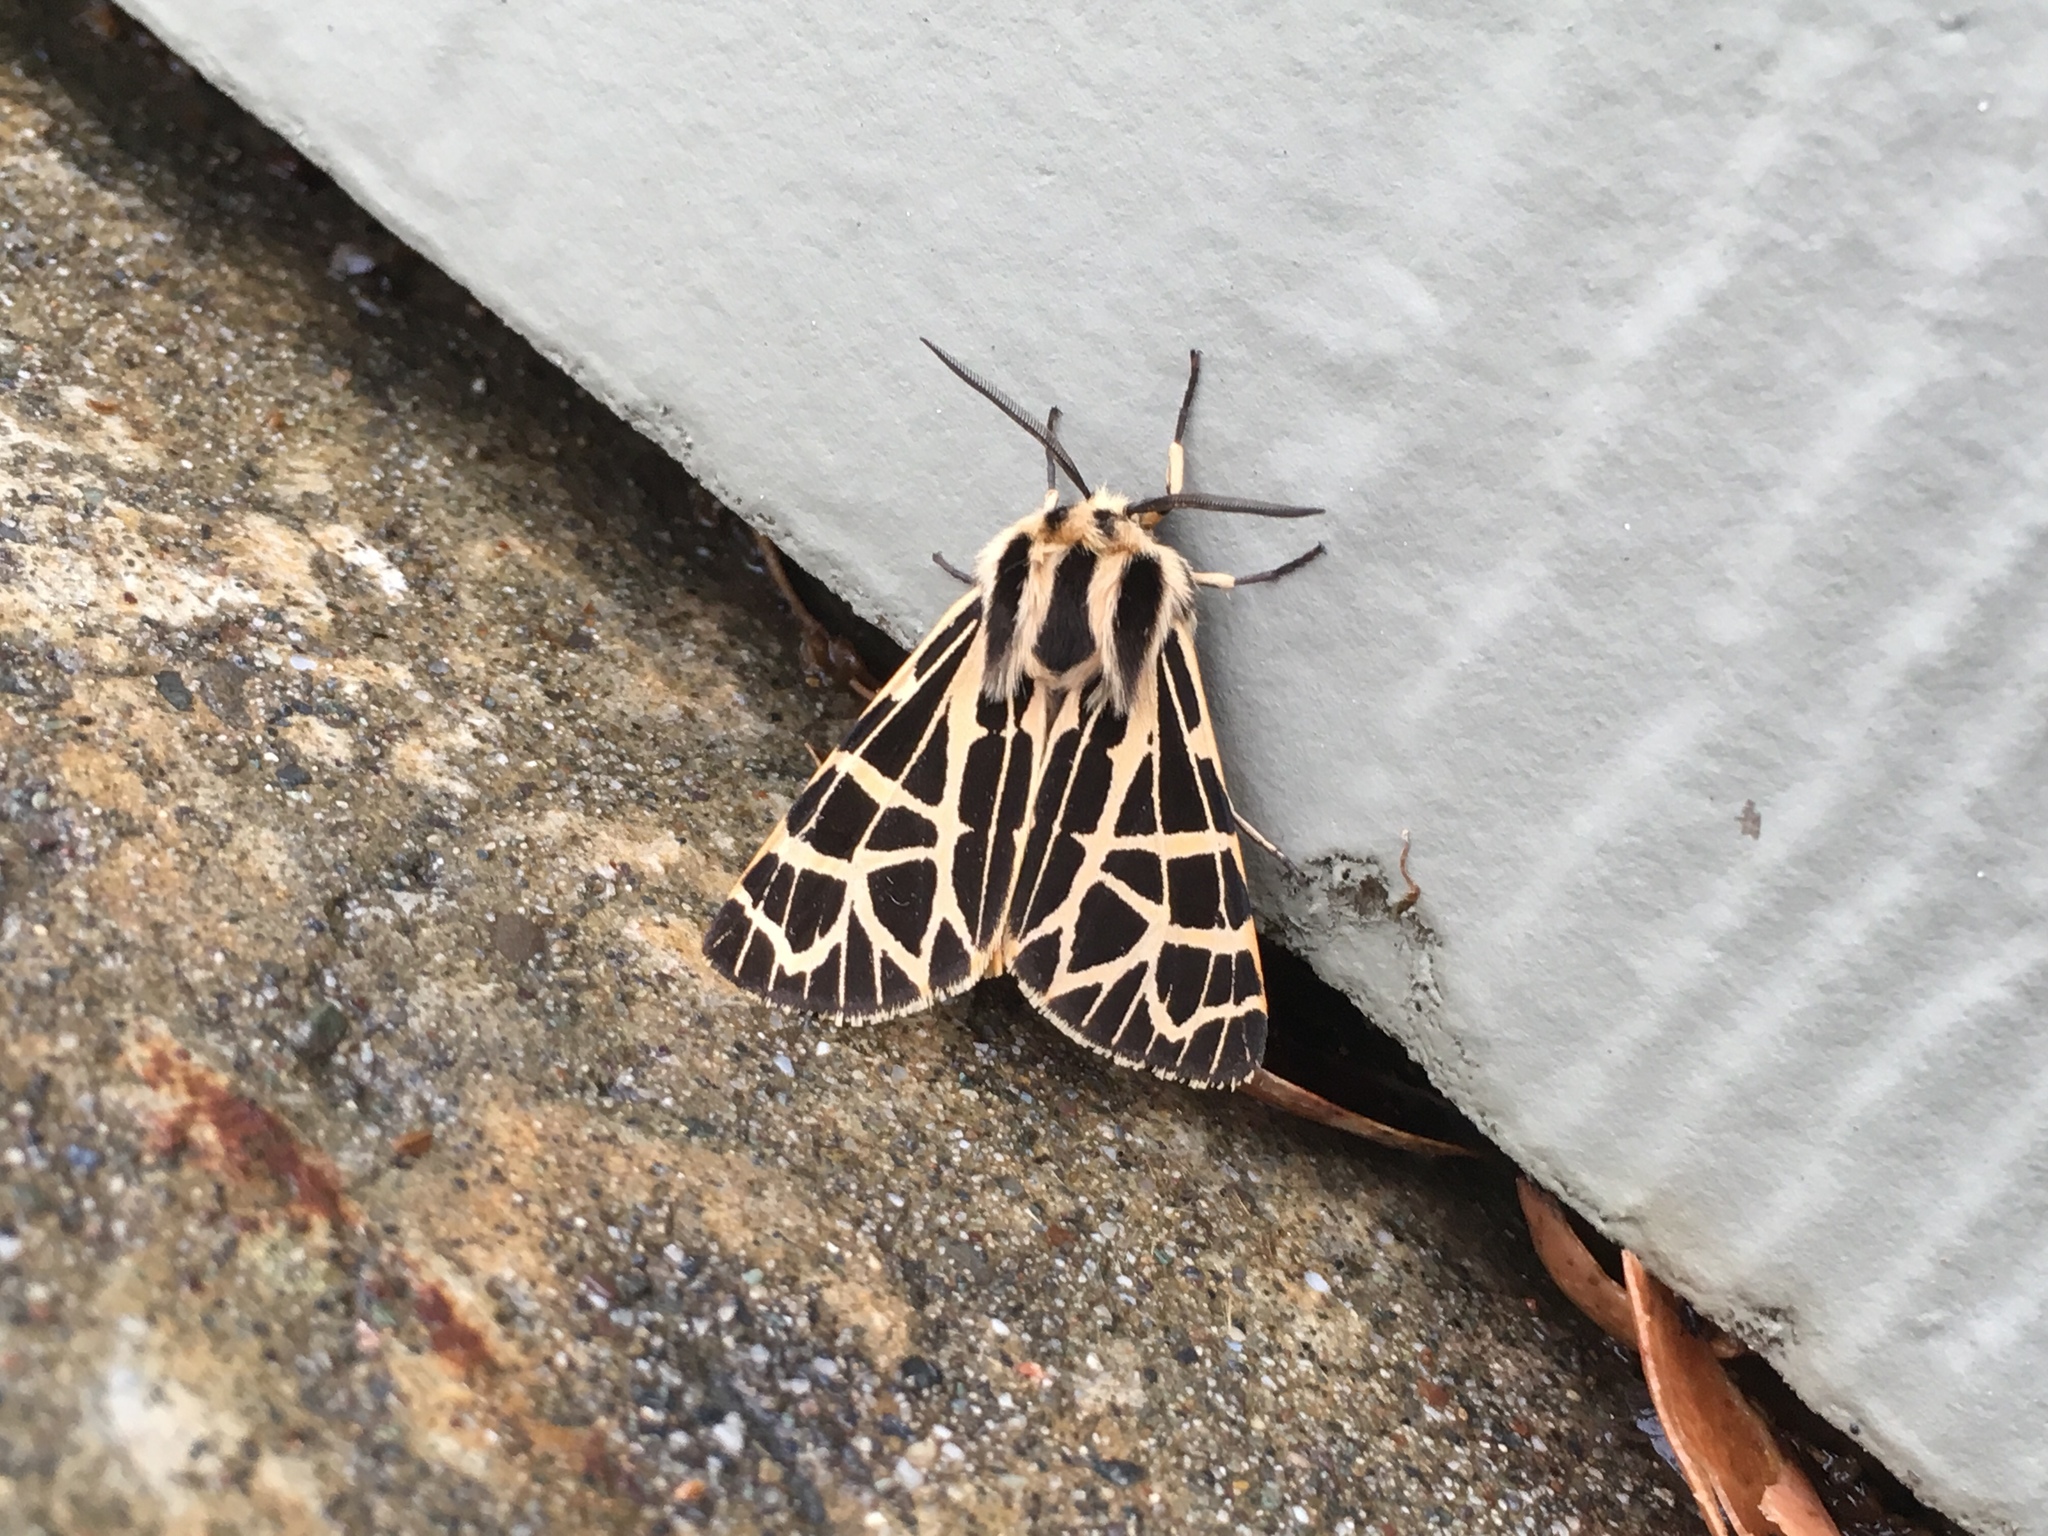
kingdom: Animalia
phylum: Arthropoda
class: Insecta
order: Lepidoptera
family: Erebidae
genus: Apantesis
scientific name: Apantesis
